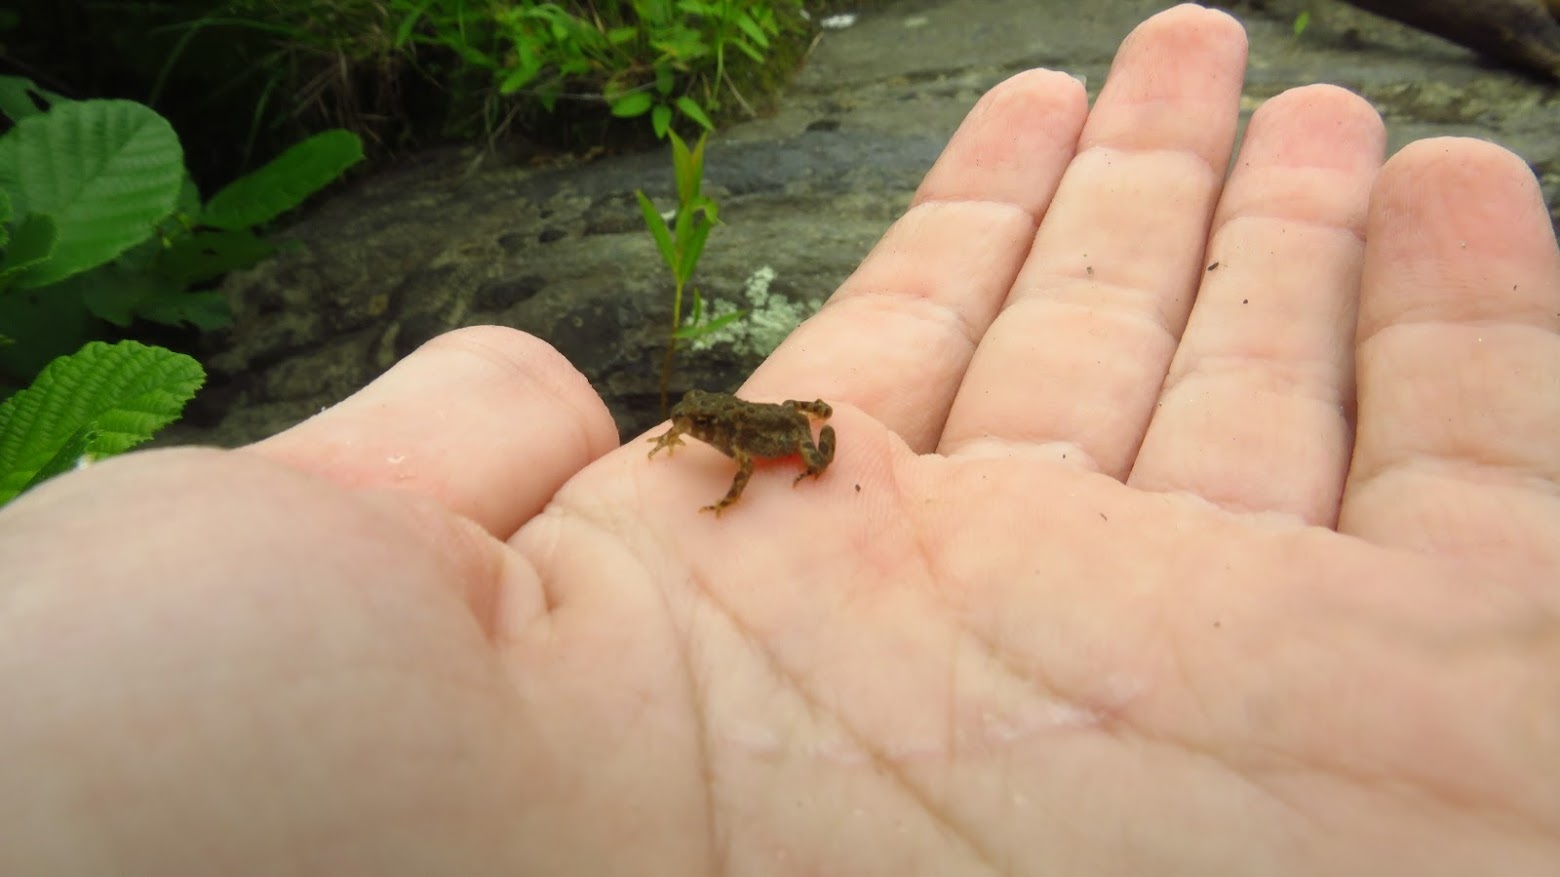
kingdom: Animalia
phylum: Chordata
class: Amphibia
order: Anura
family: Bufonidae
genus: Anaxyrus
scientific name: Anaxyrus americanus
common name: American toad
